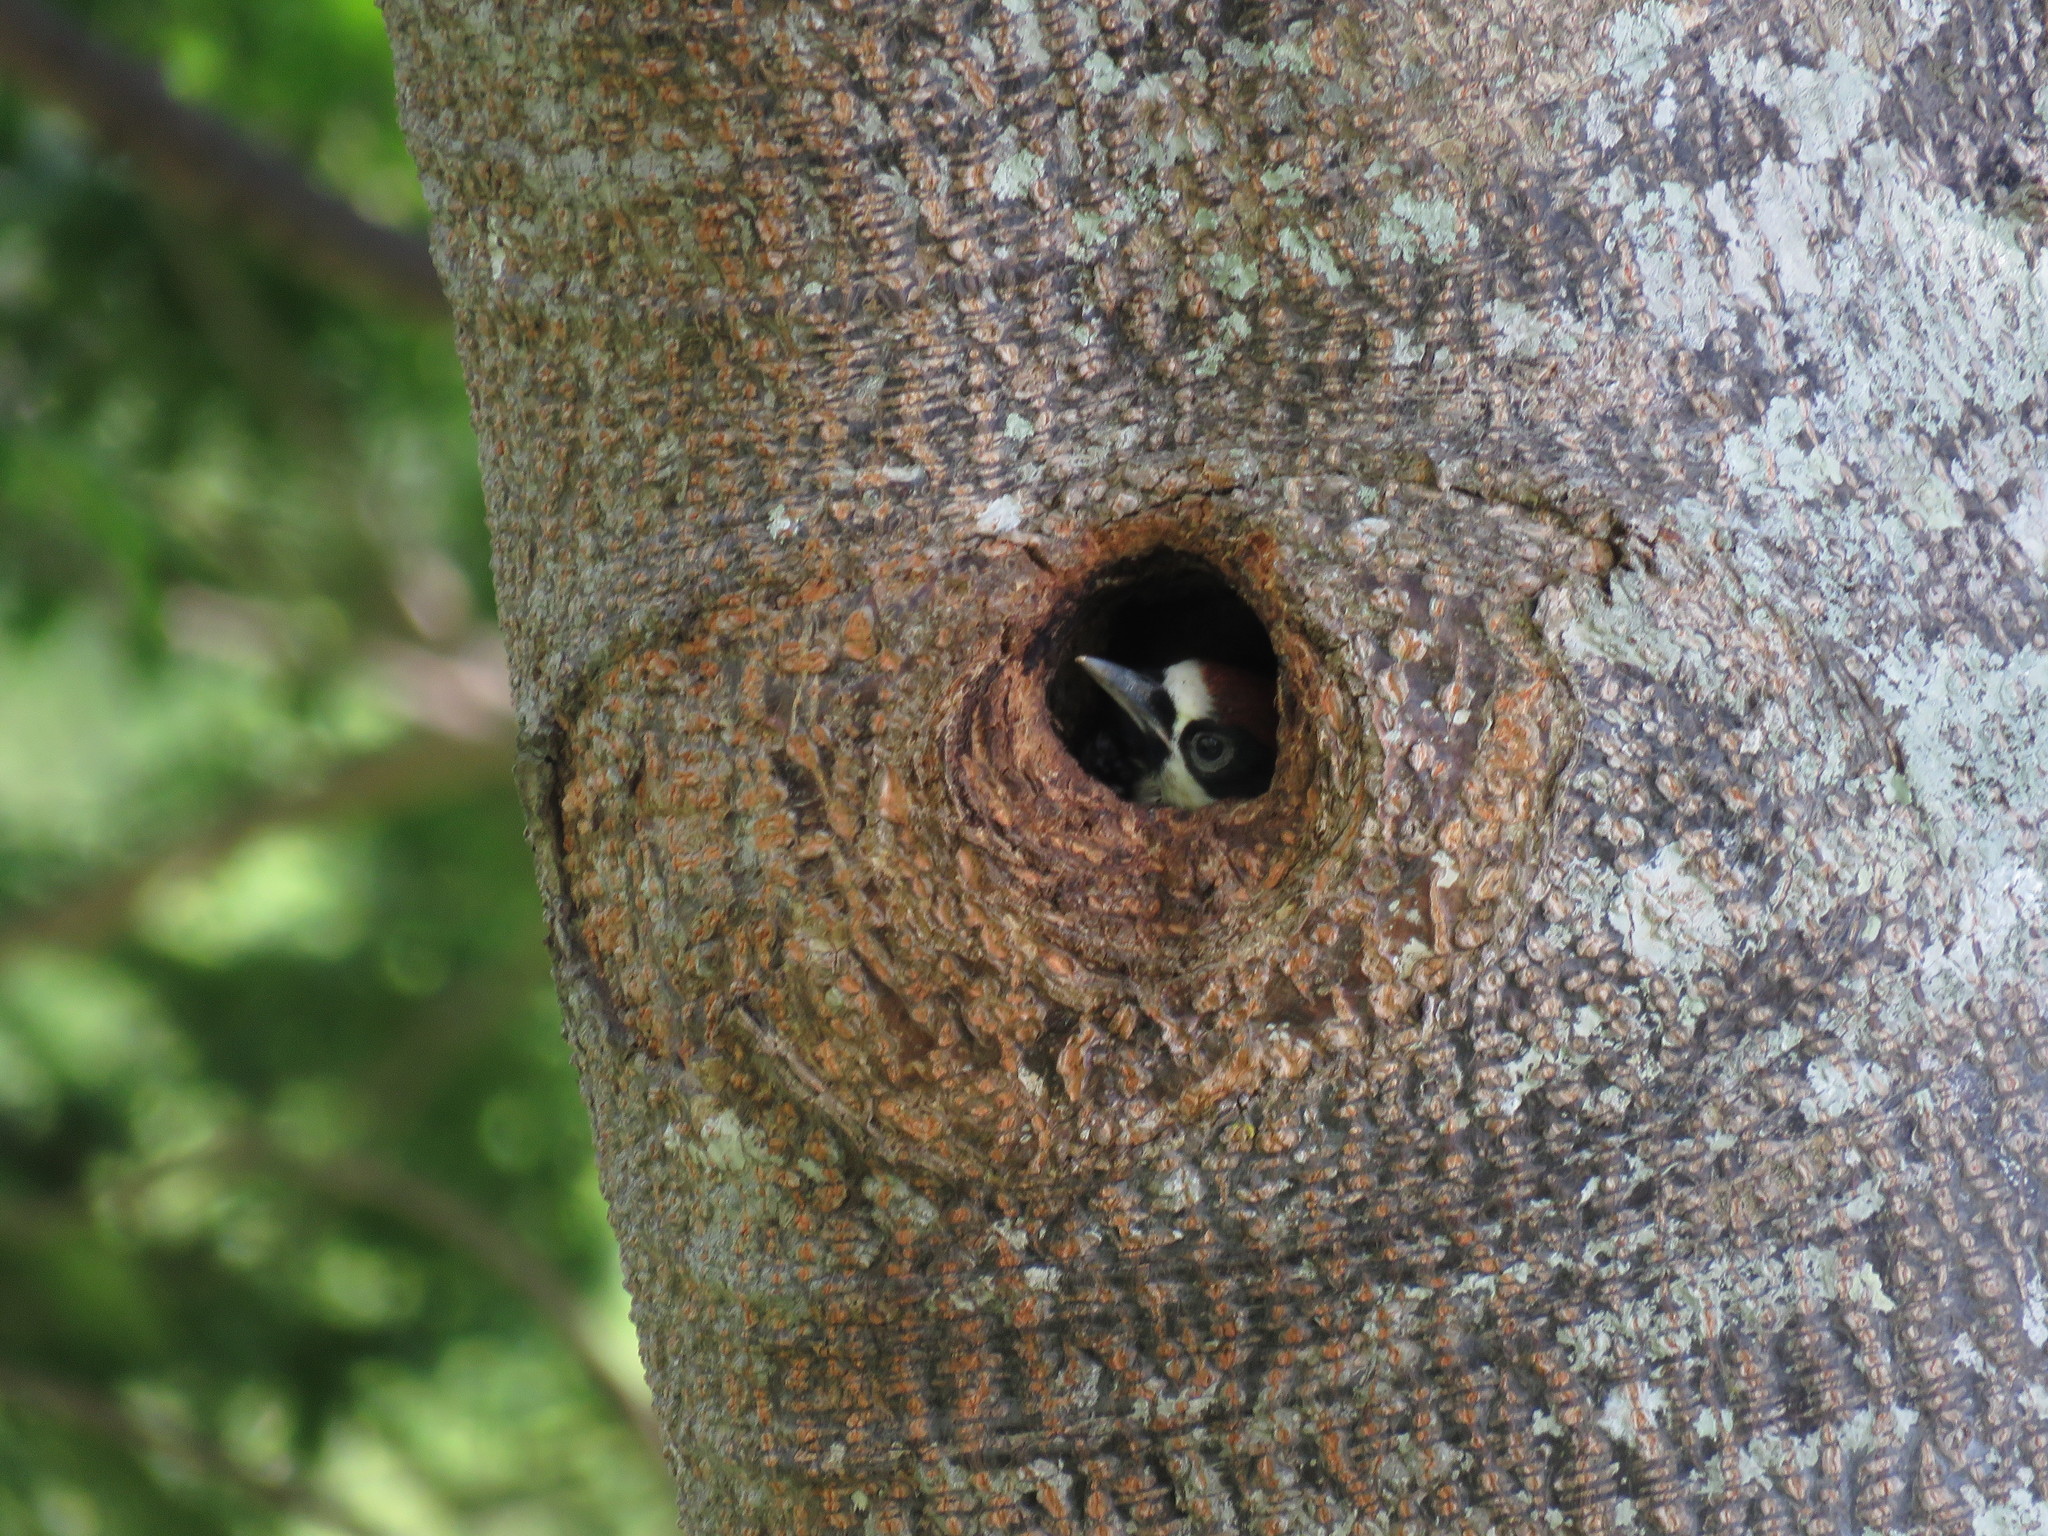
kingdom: Animalia
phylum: Chordata
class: Aves
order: Piciformes
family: Picidae
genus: Melanerpes
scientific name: Melanerpes formicivorus
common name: Acorn woodpecker
